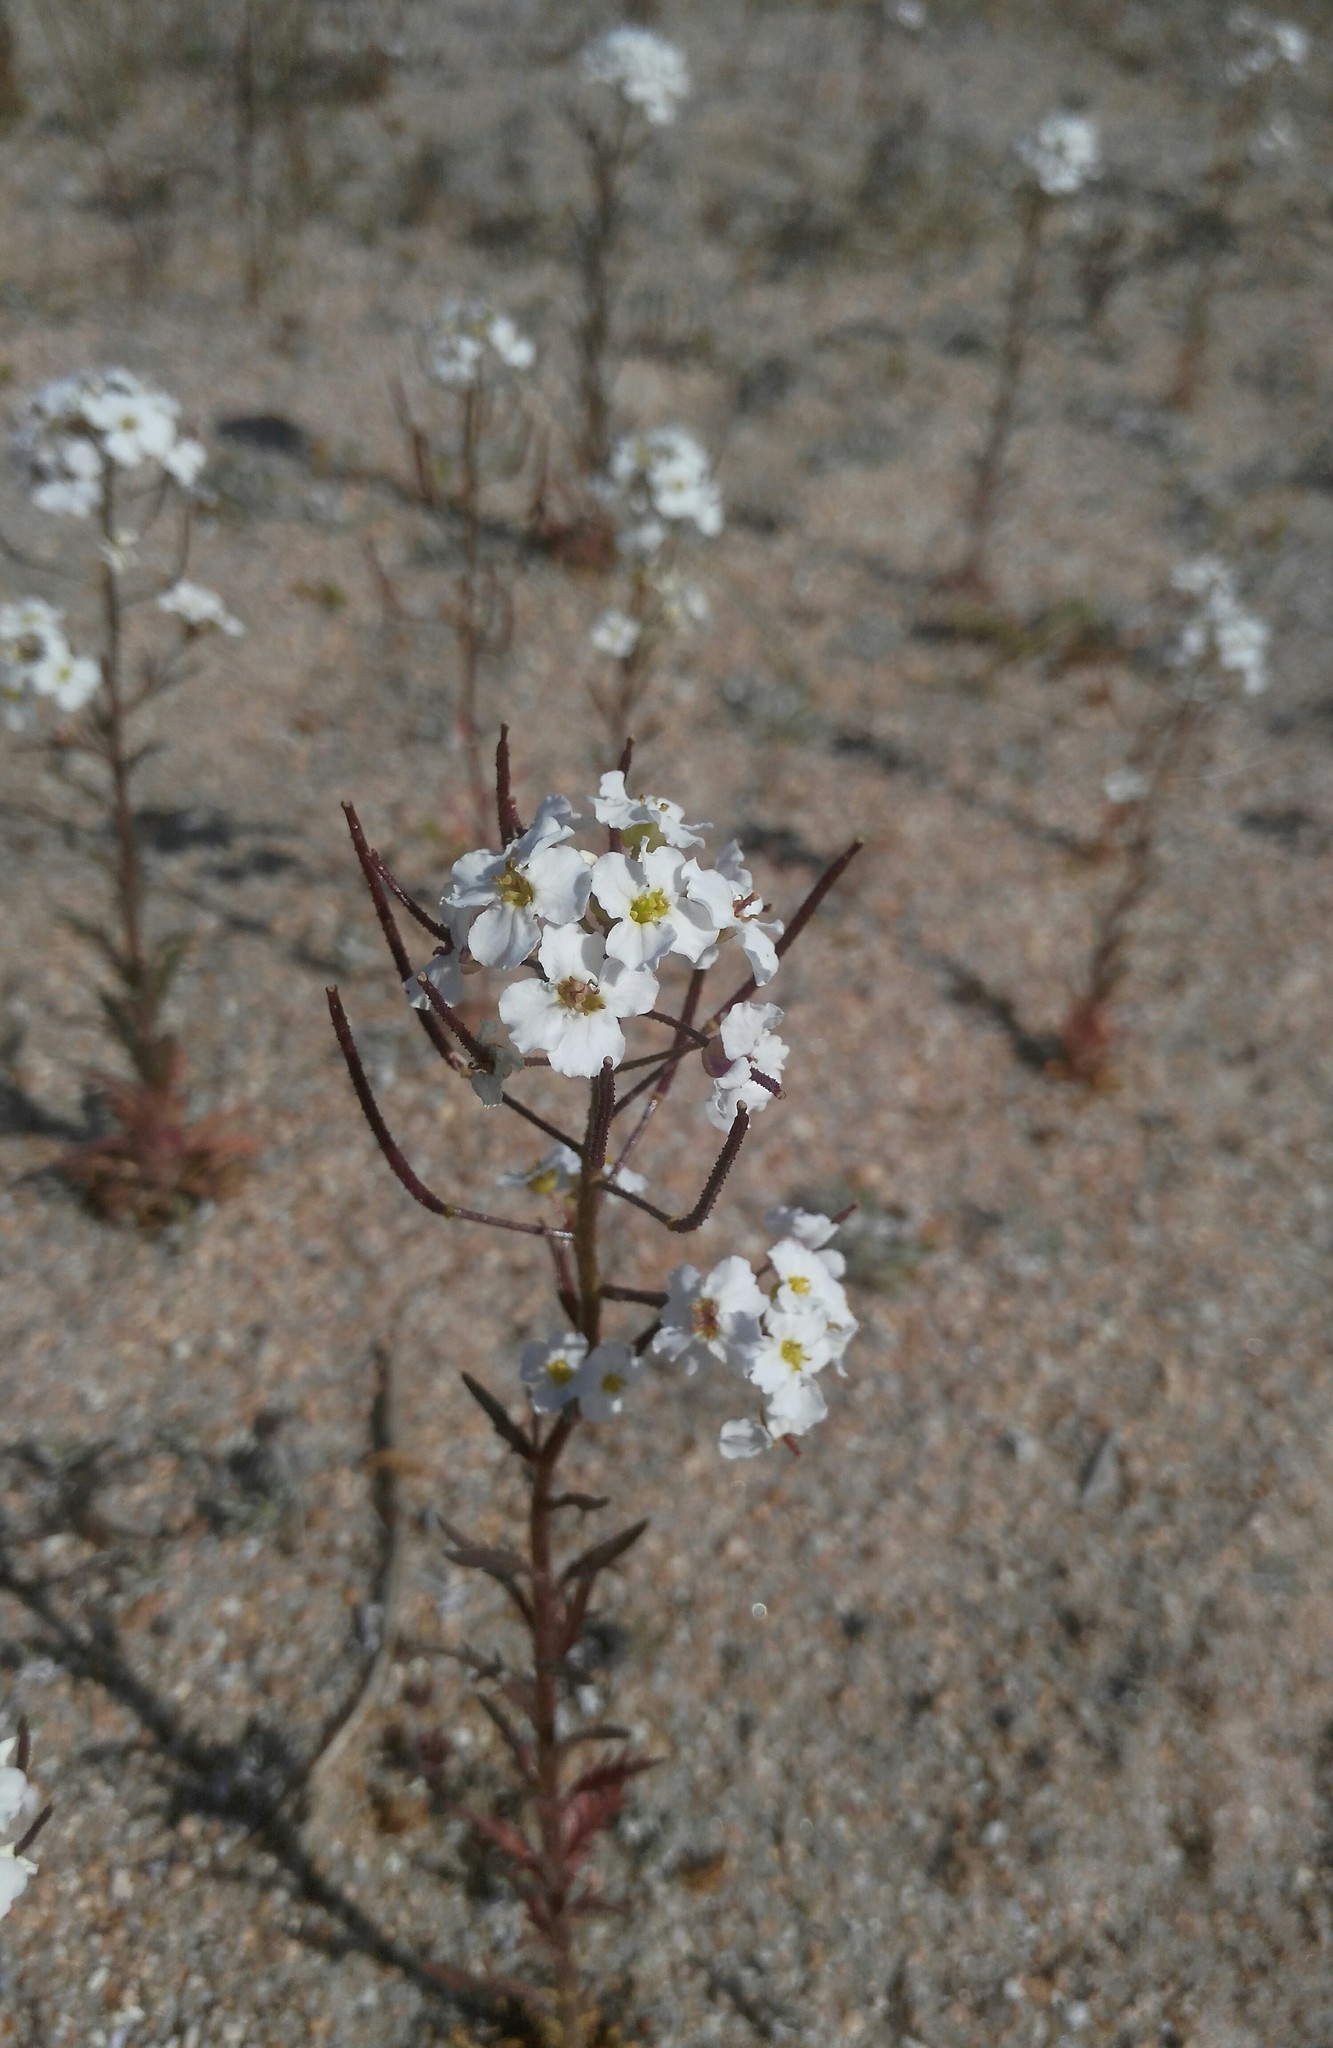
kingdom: Plantae
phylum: Tracheophyta
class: Magnoliopsida
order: Brassicales
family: Brassicaceae
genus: Dontostemon
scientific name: Dontostemon pinnatifidus
